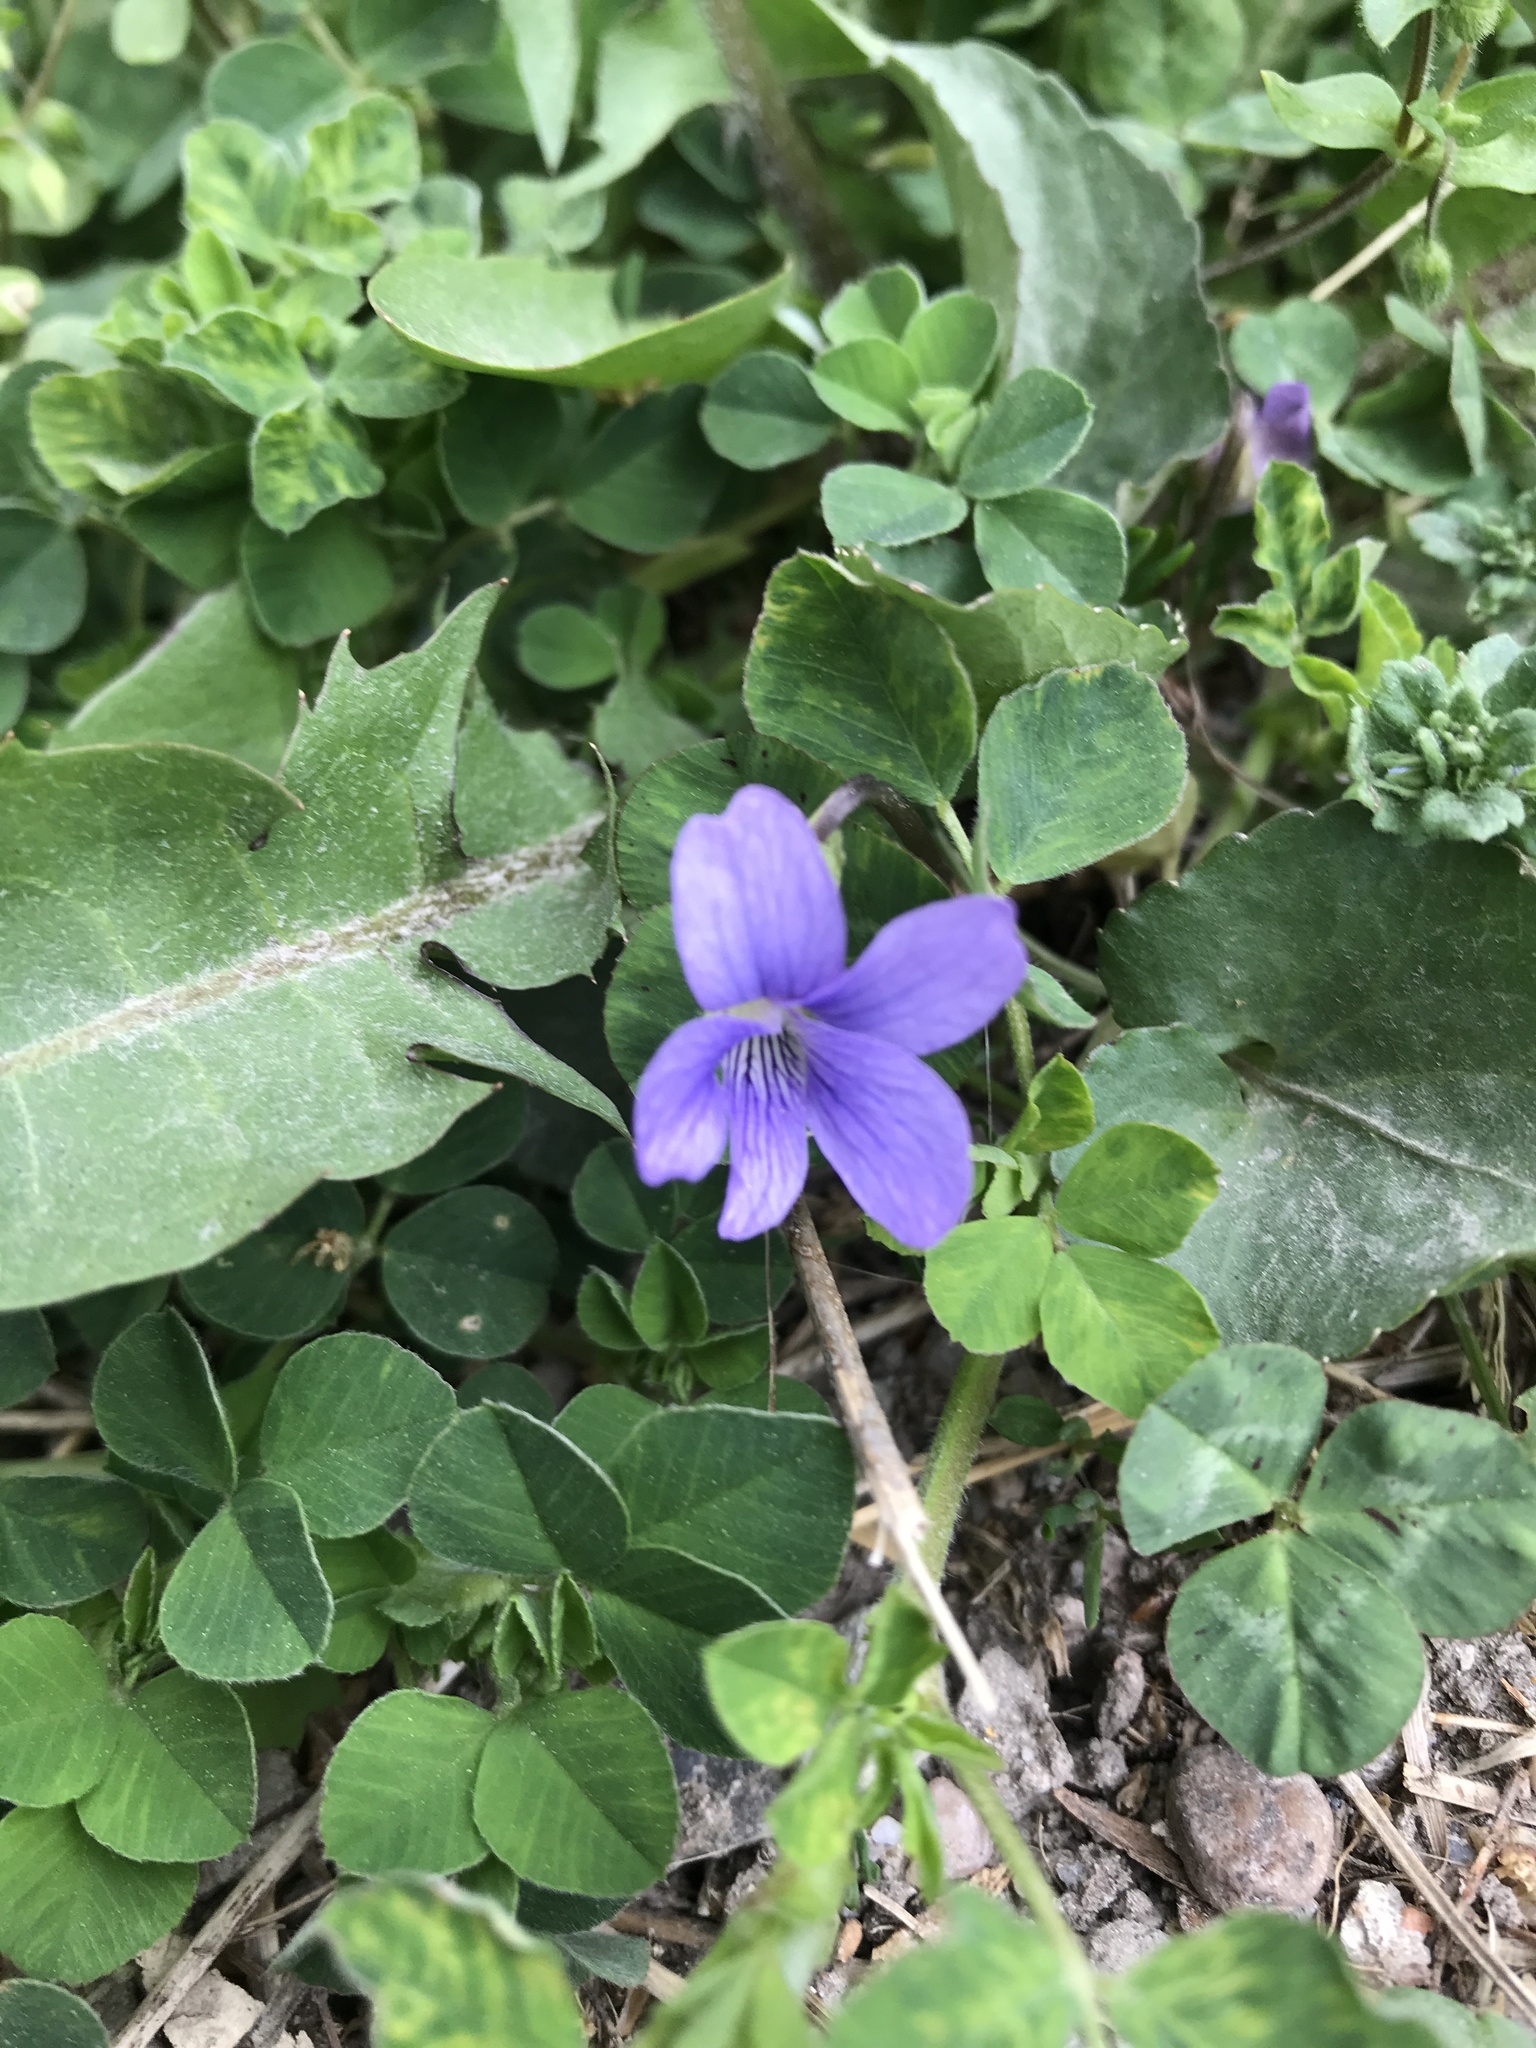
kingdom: Plantae
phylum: Tracheophyta
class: Magnoliopsida
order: Malpighiales
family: Violaceae
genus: Viola
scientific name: Viola communis
